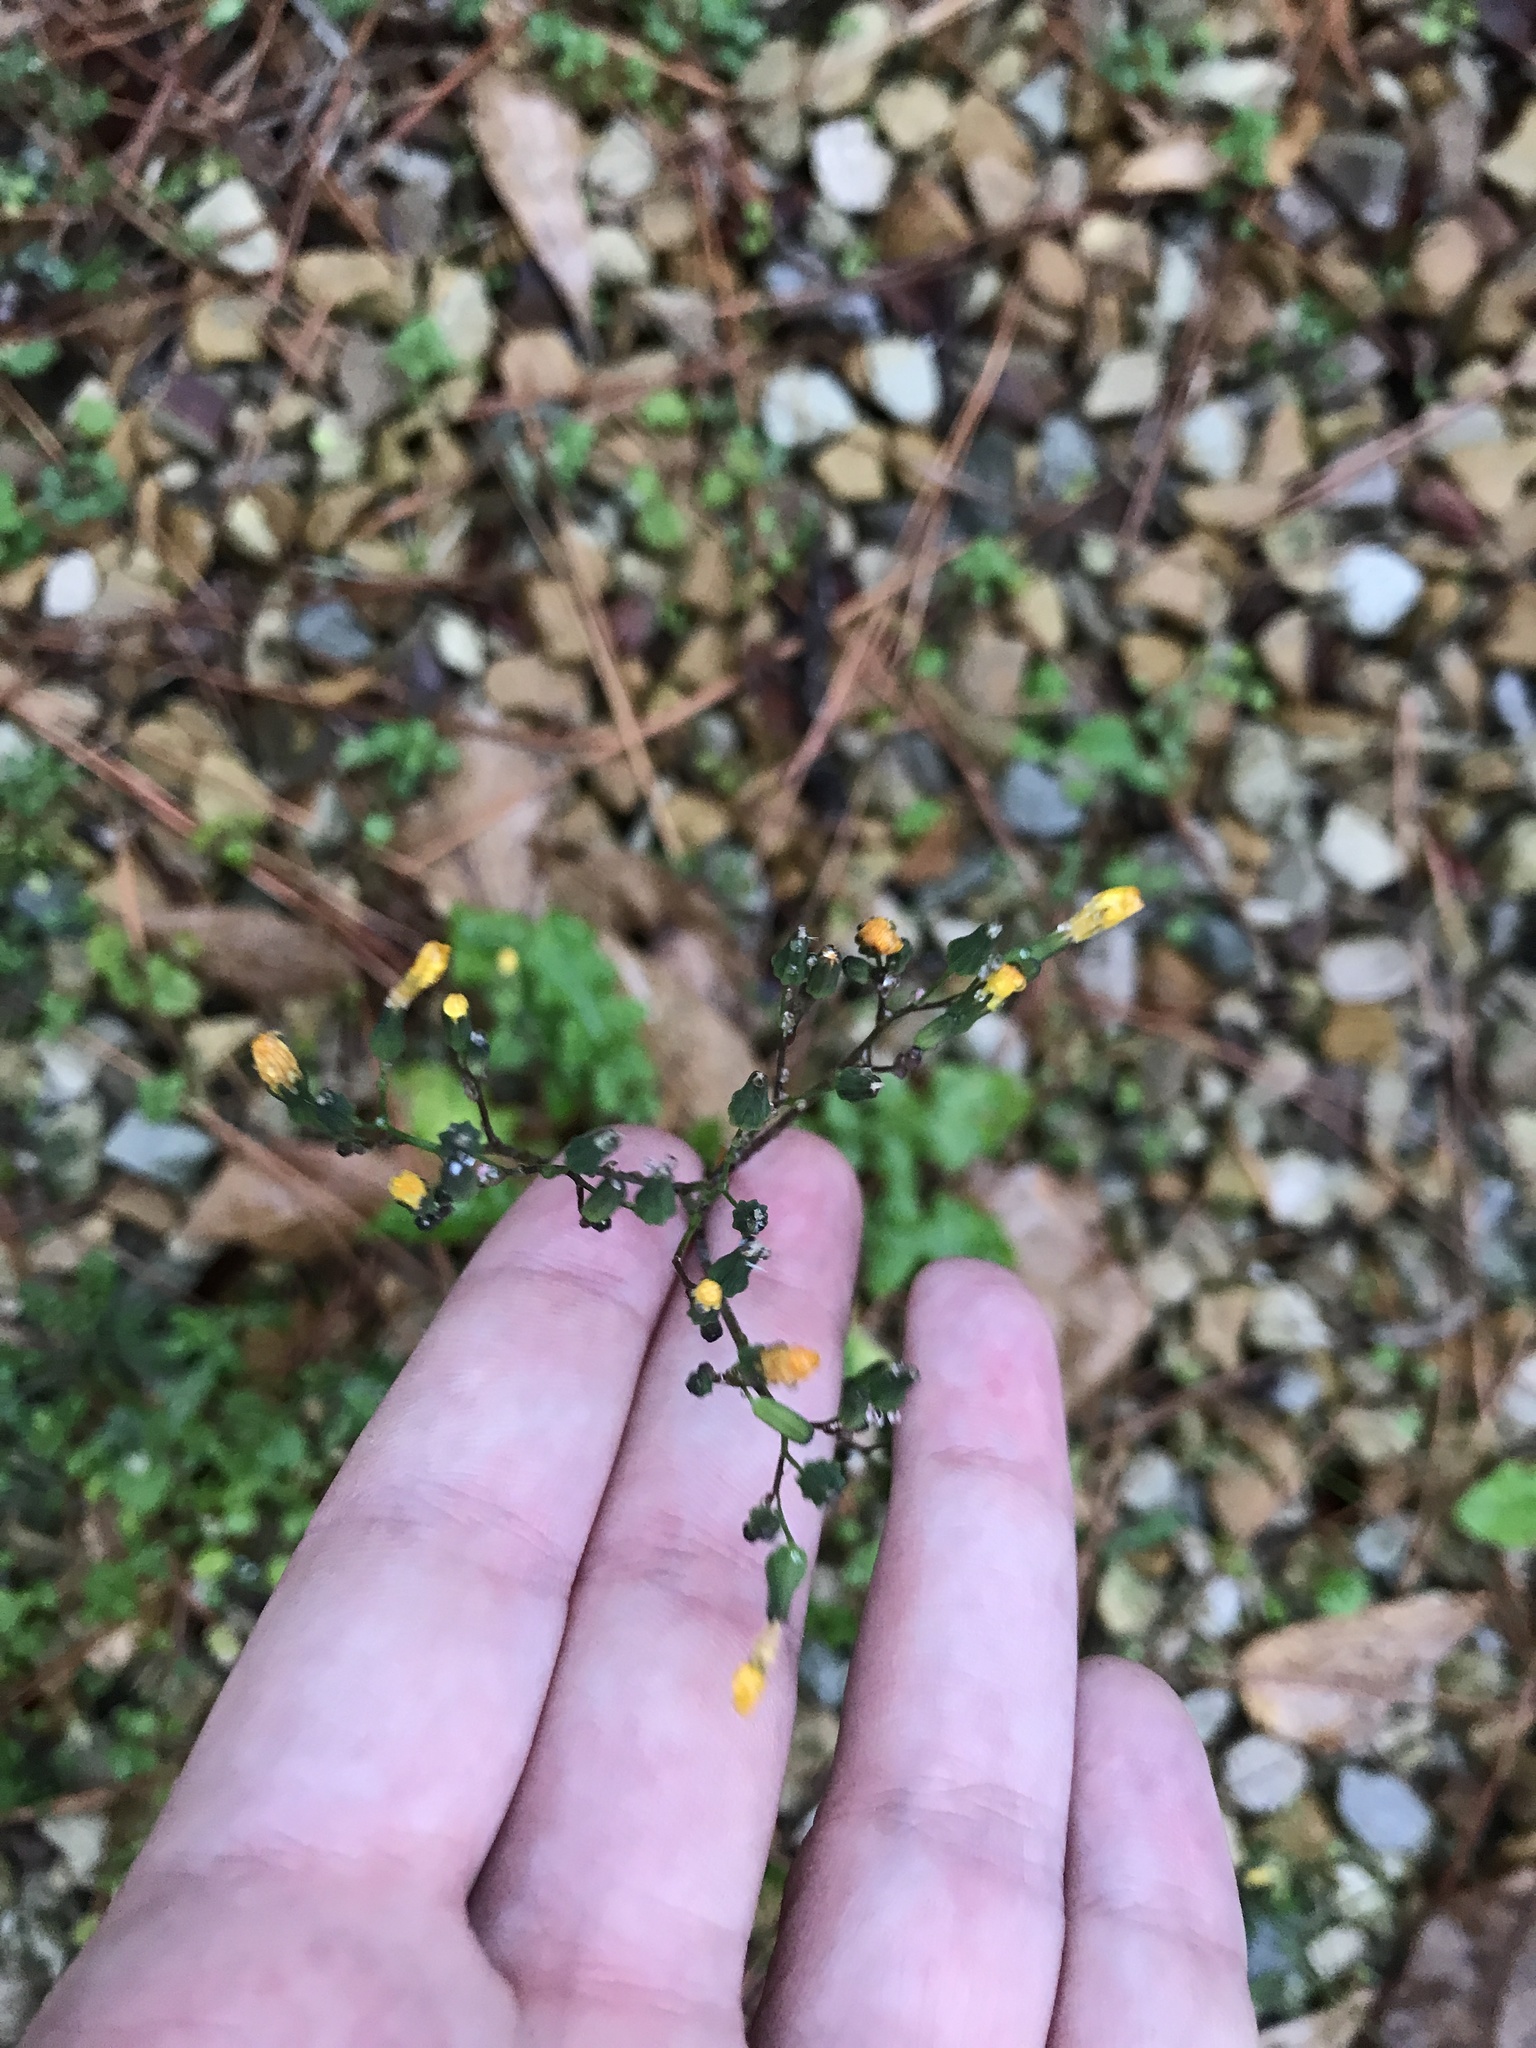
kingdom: Plantae
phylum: Tracheophyta
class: Magnoliopsida
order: Asterales
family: Asteraceae
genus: Youngia
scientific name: Youngia japonica
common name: Oriental false hawksbeard
